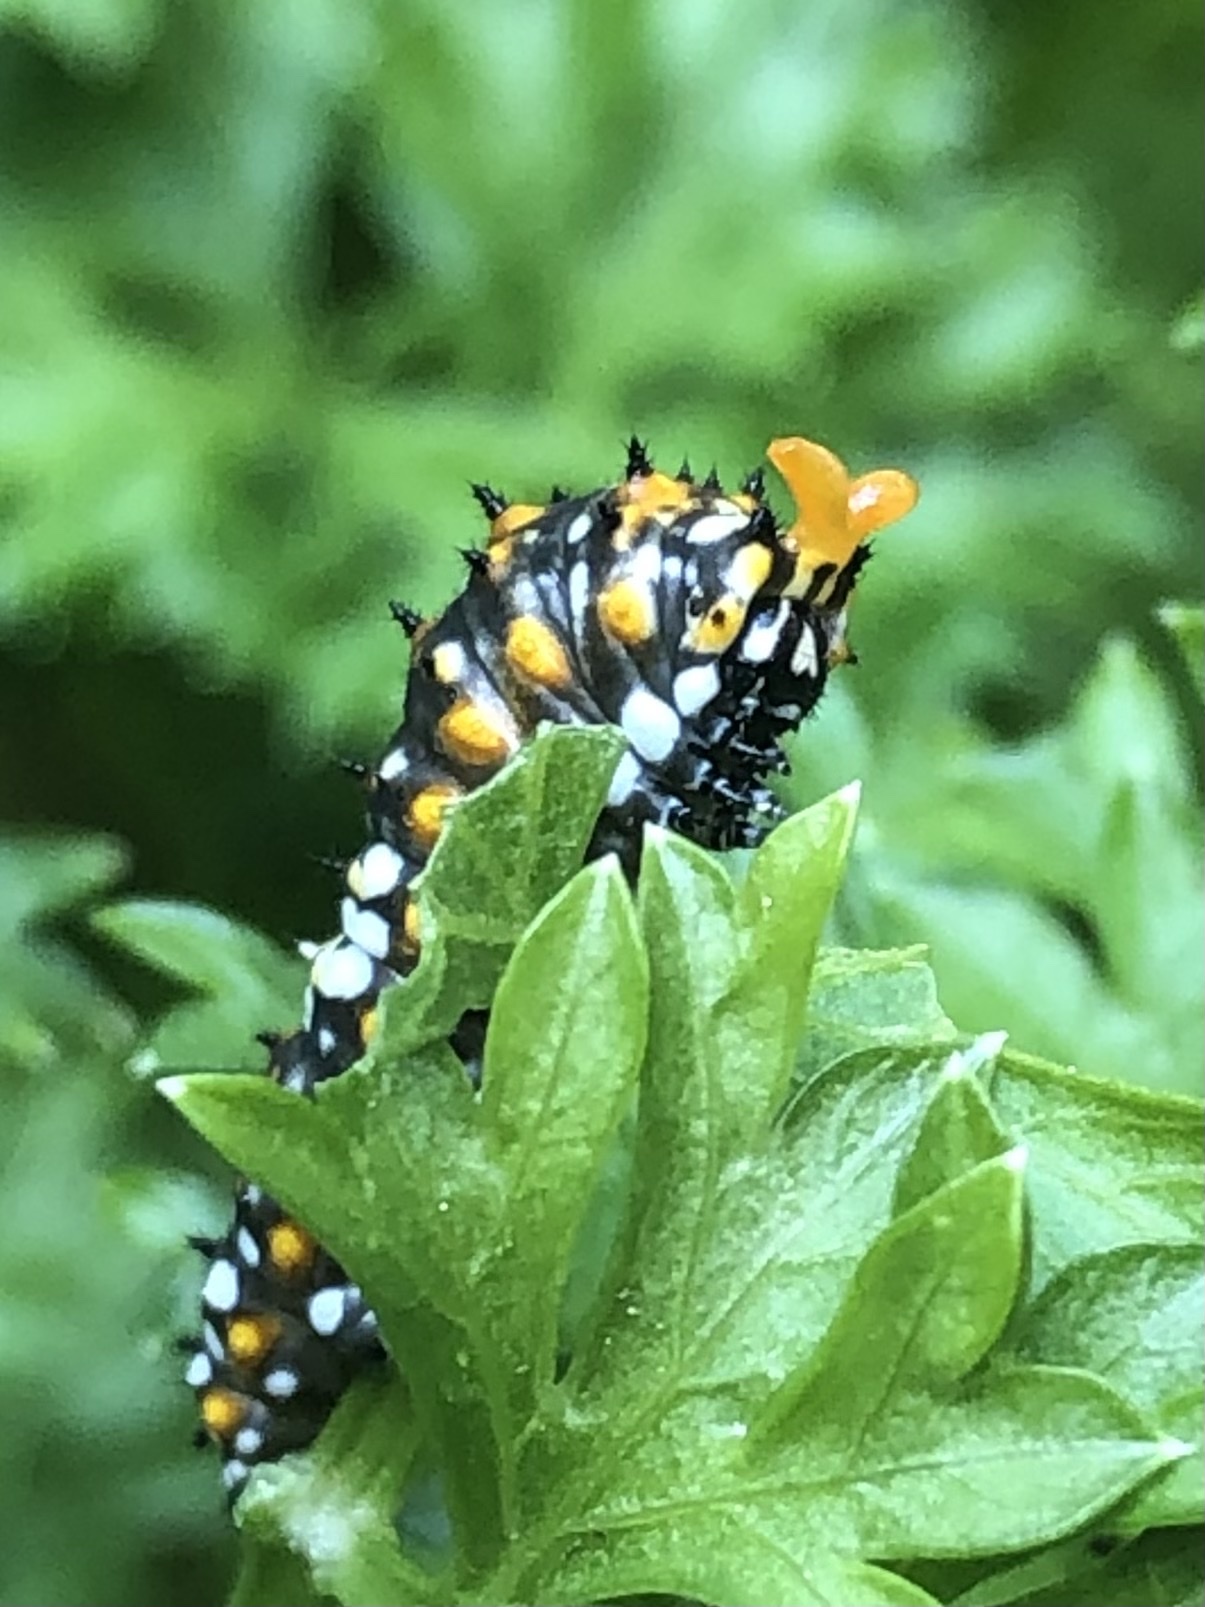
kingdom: Animalia
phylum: Arthropoda
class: Insecta
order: Lepidoptera
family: Papilionidae
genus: Papilio
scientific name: Papilio polyxenes
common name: Black swallowtail
